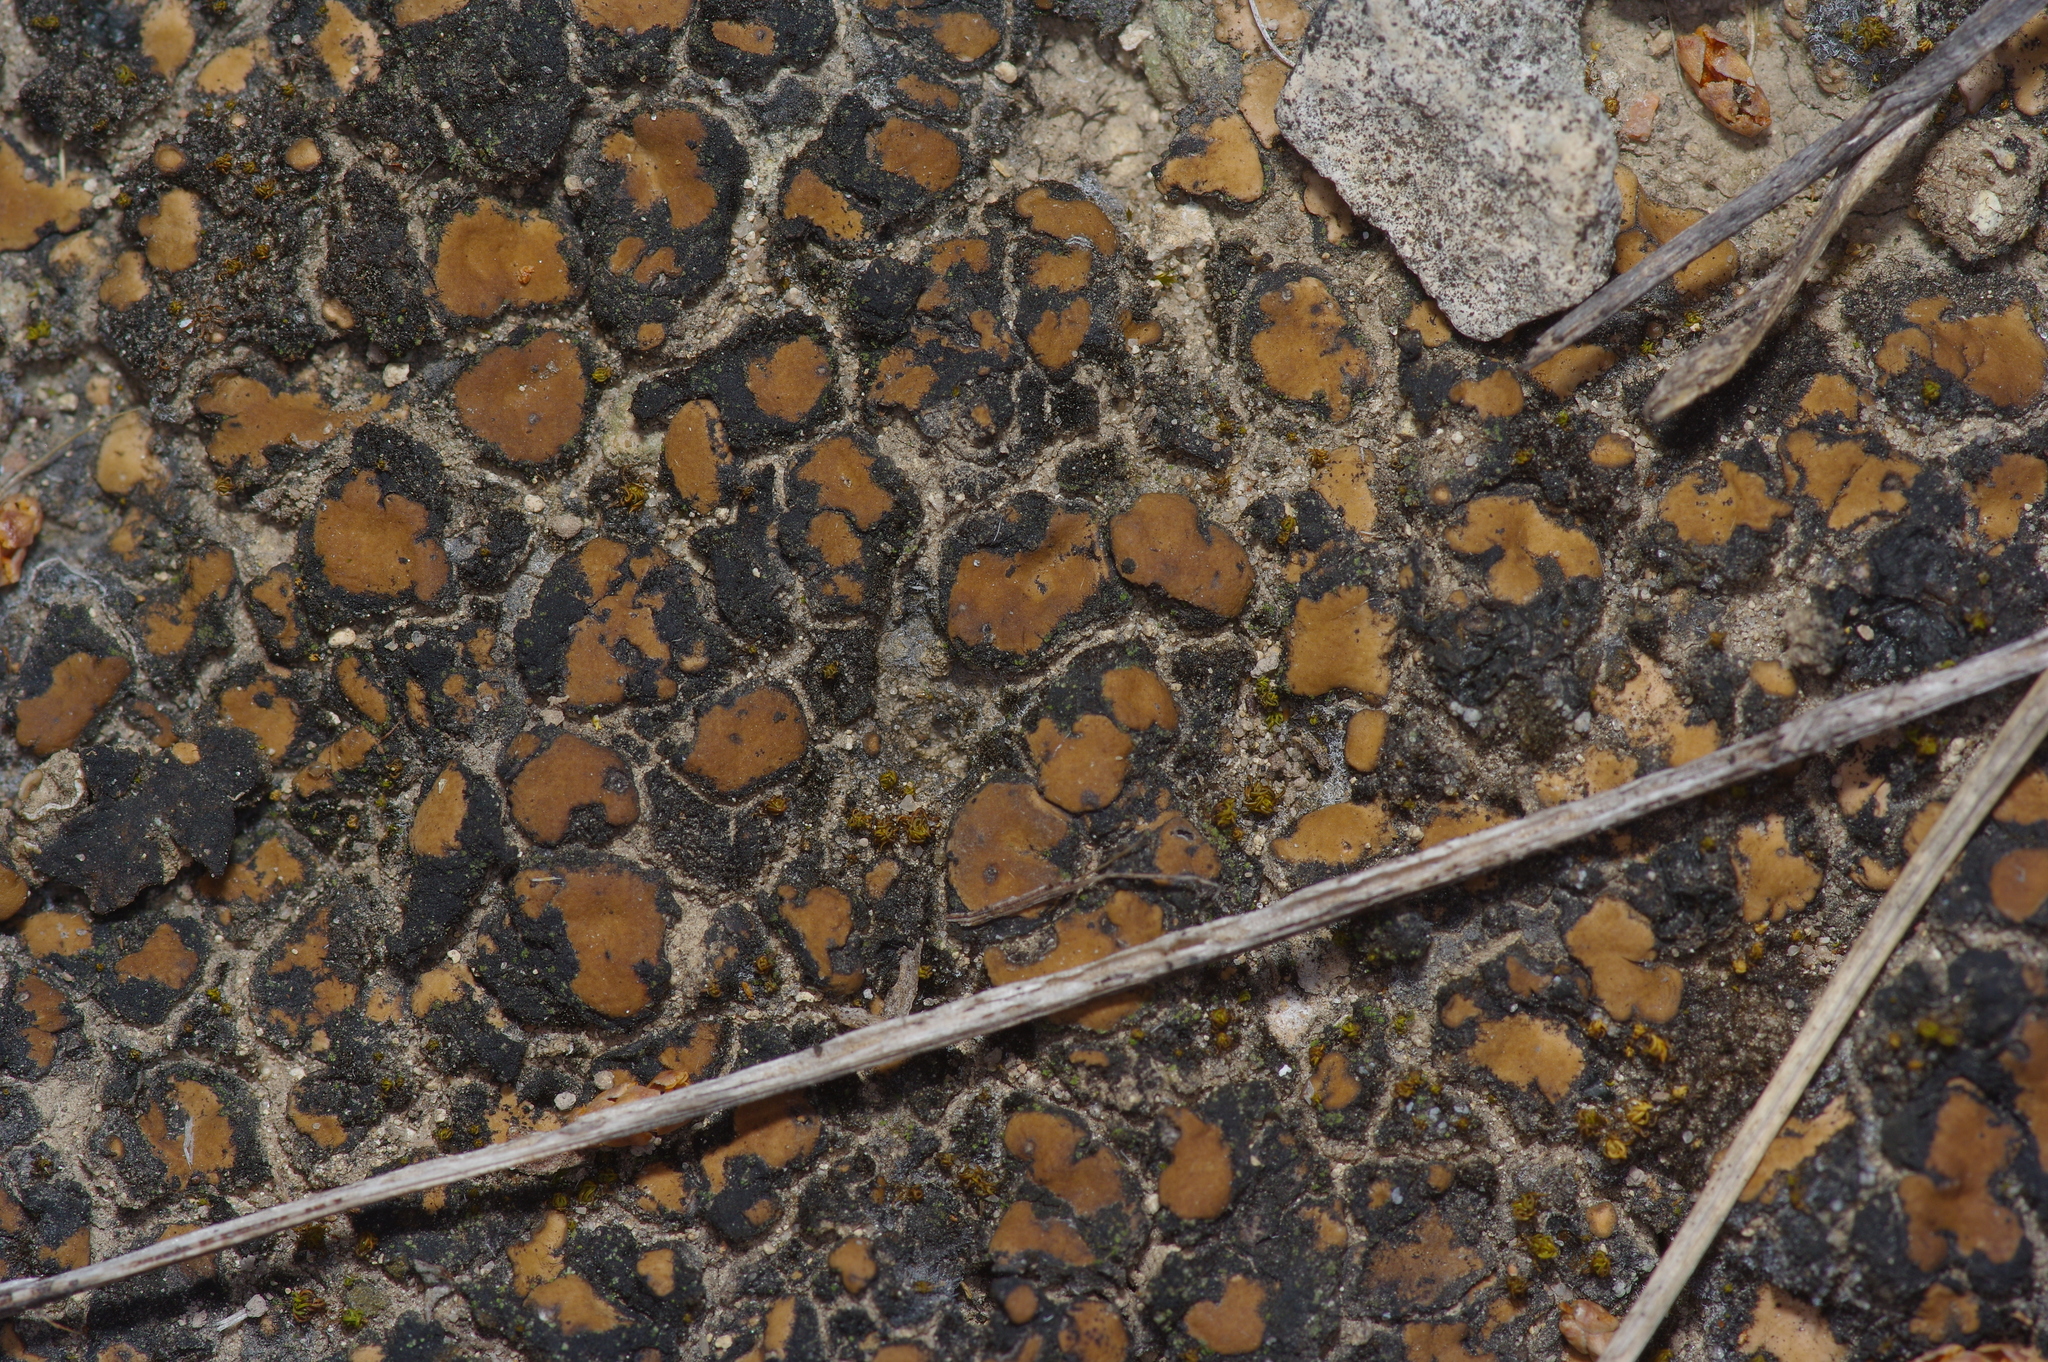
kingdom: Fungi
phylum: Ascomycota
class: Eurotiomycetes
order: Verrucariales
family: Verrucariaceae
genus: Clavascidium
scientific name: Clavascidium lacinulatum
